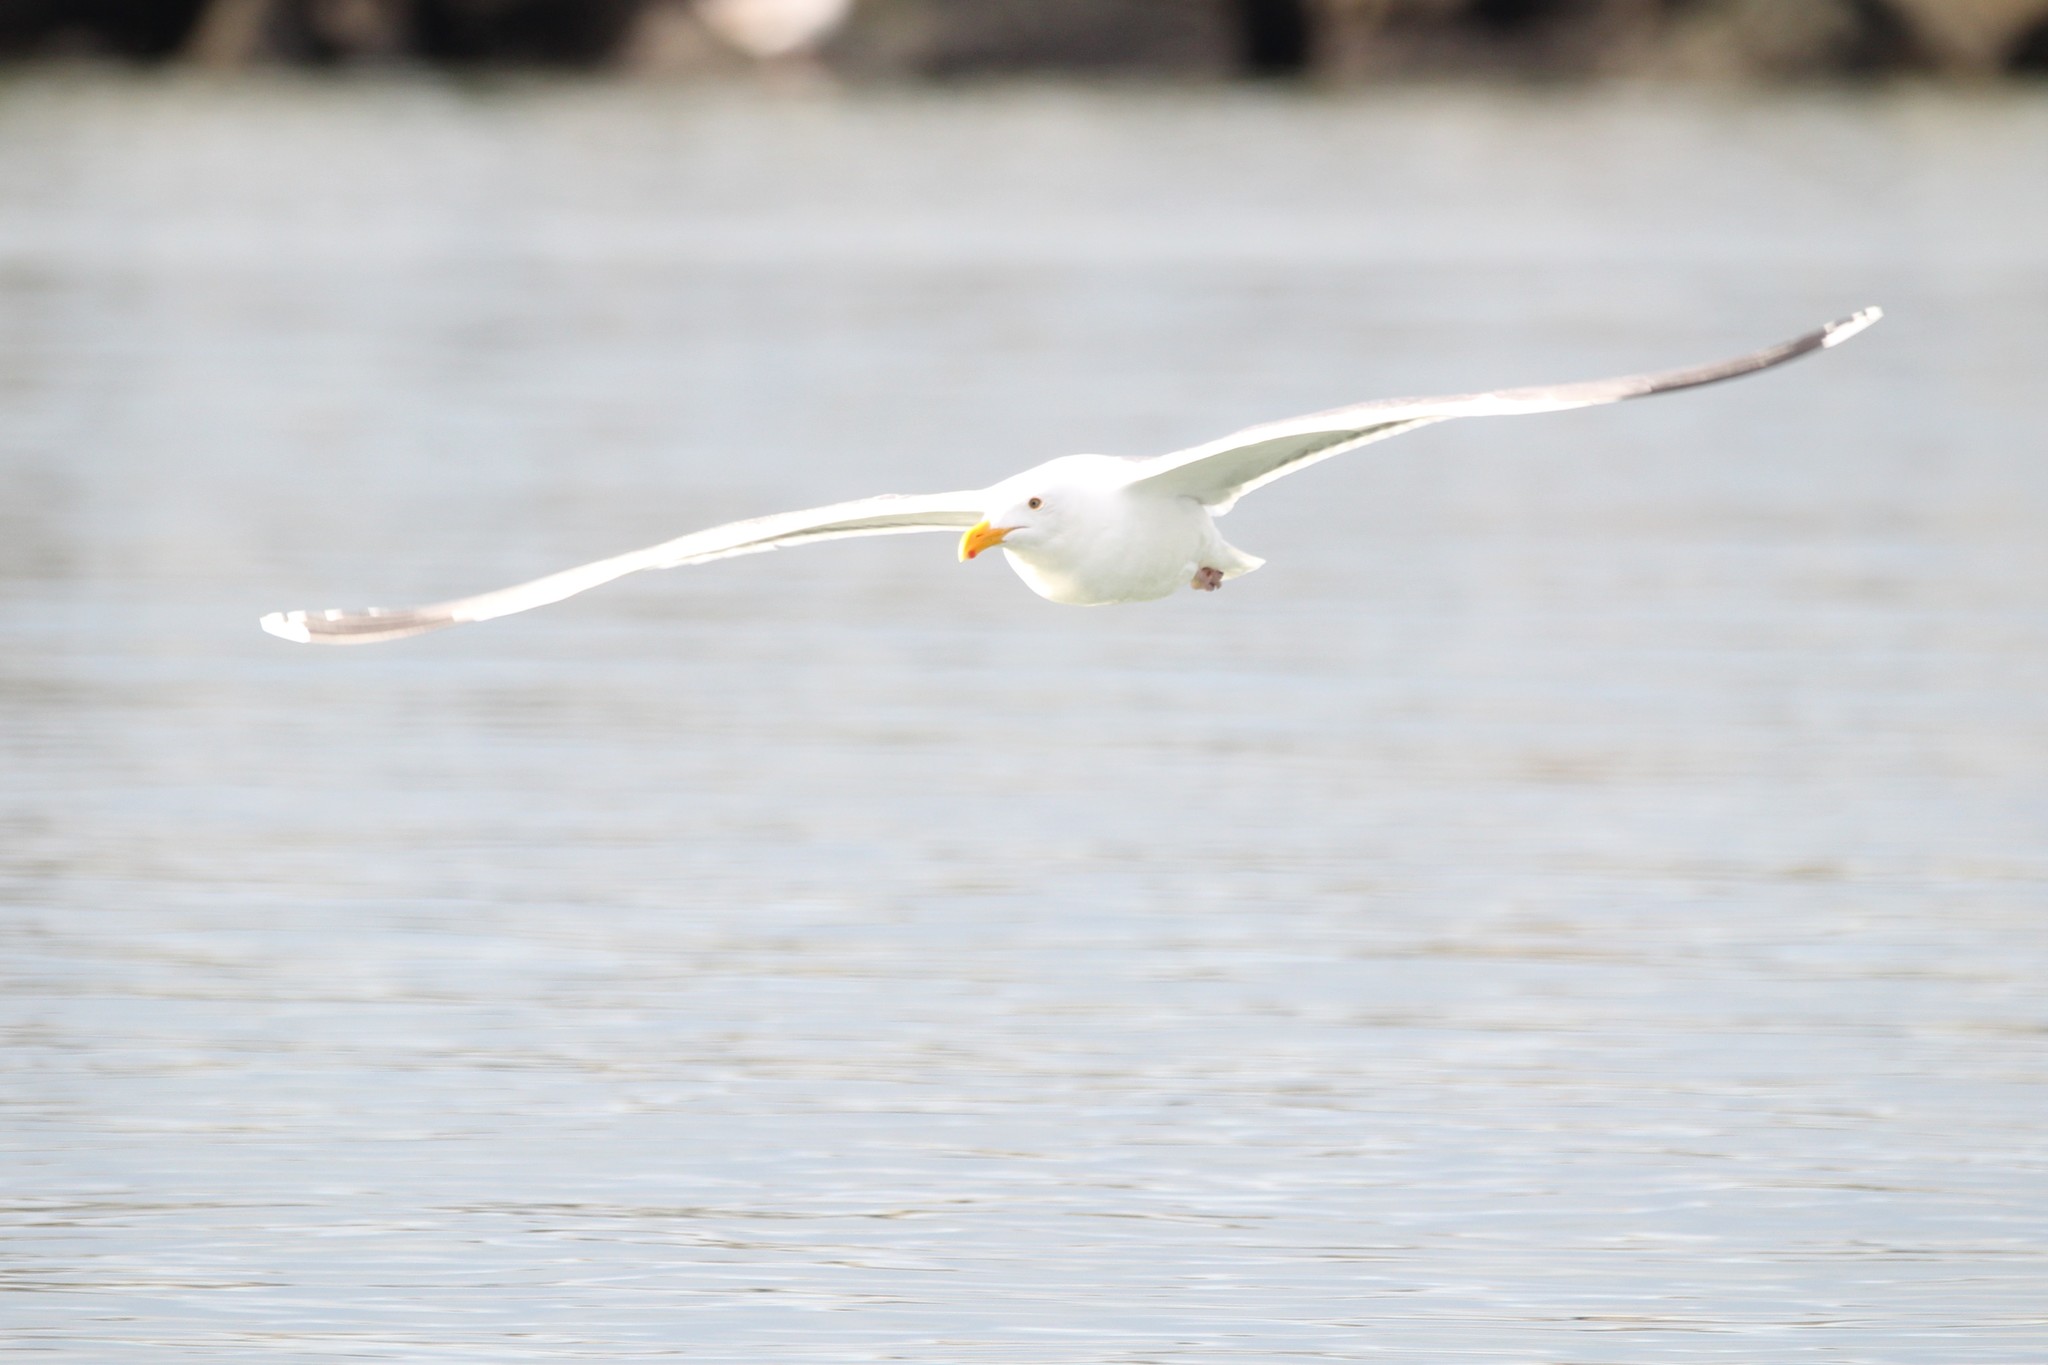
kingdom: Animalia
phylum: Chordata
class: Aves
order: Charadriiformes
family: Laridae
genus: Larus
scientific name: Larus occidentalis
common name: Western gull
